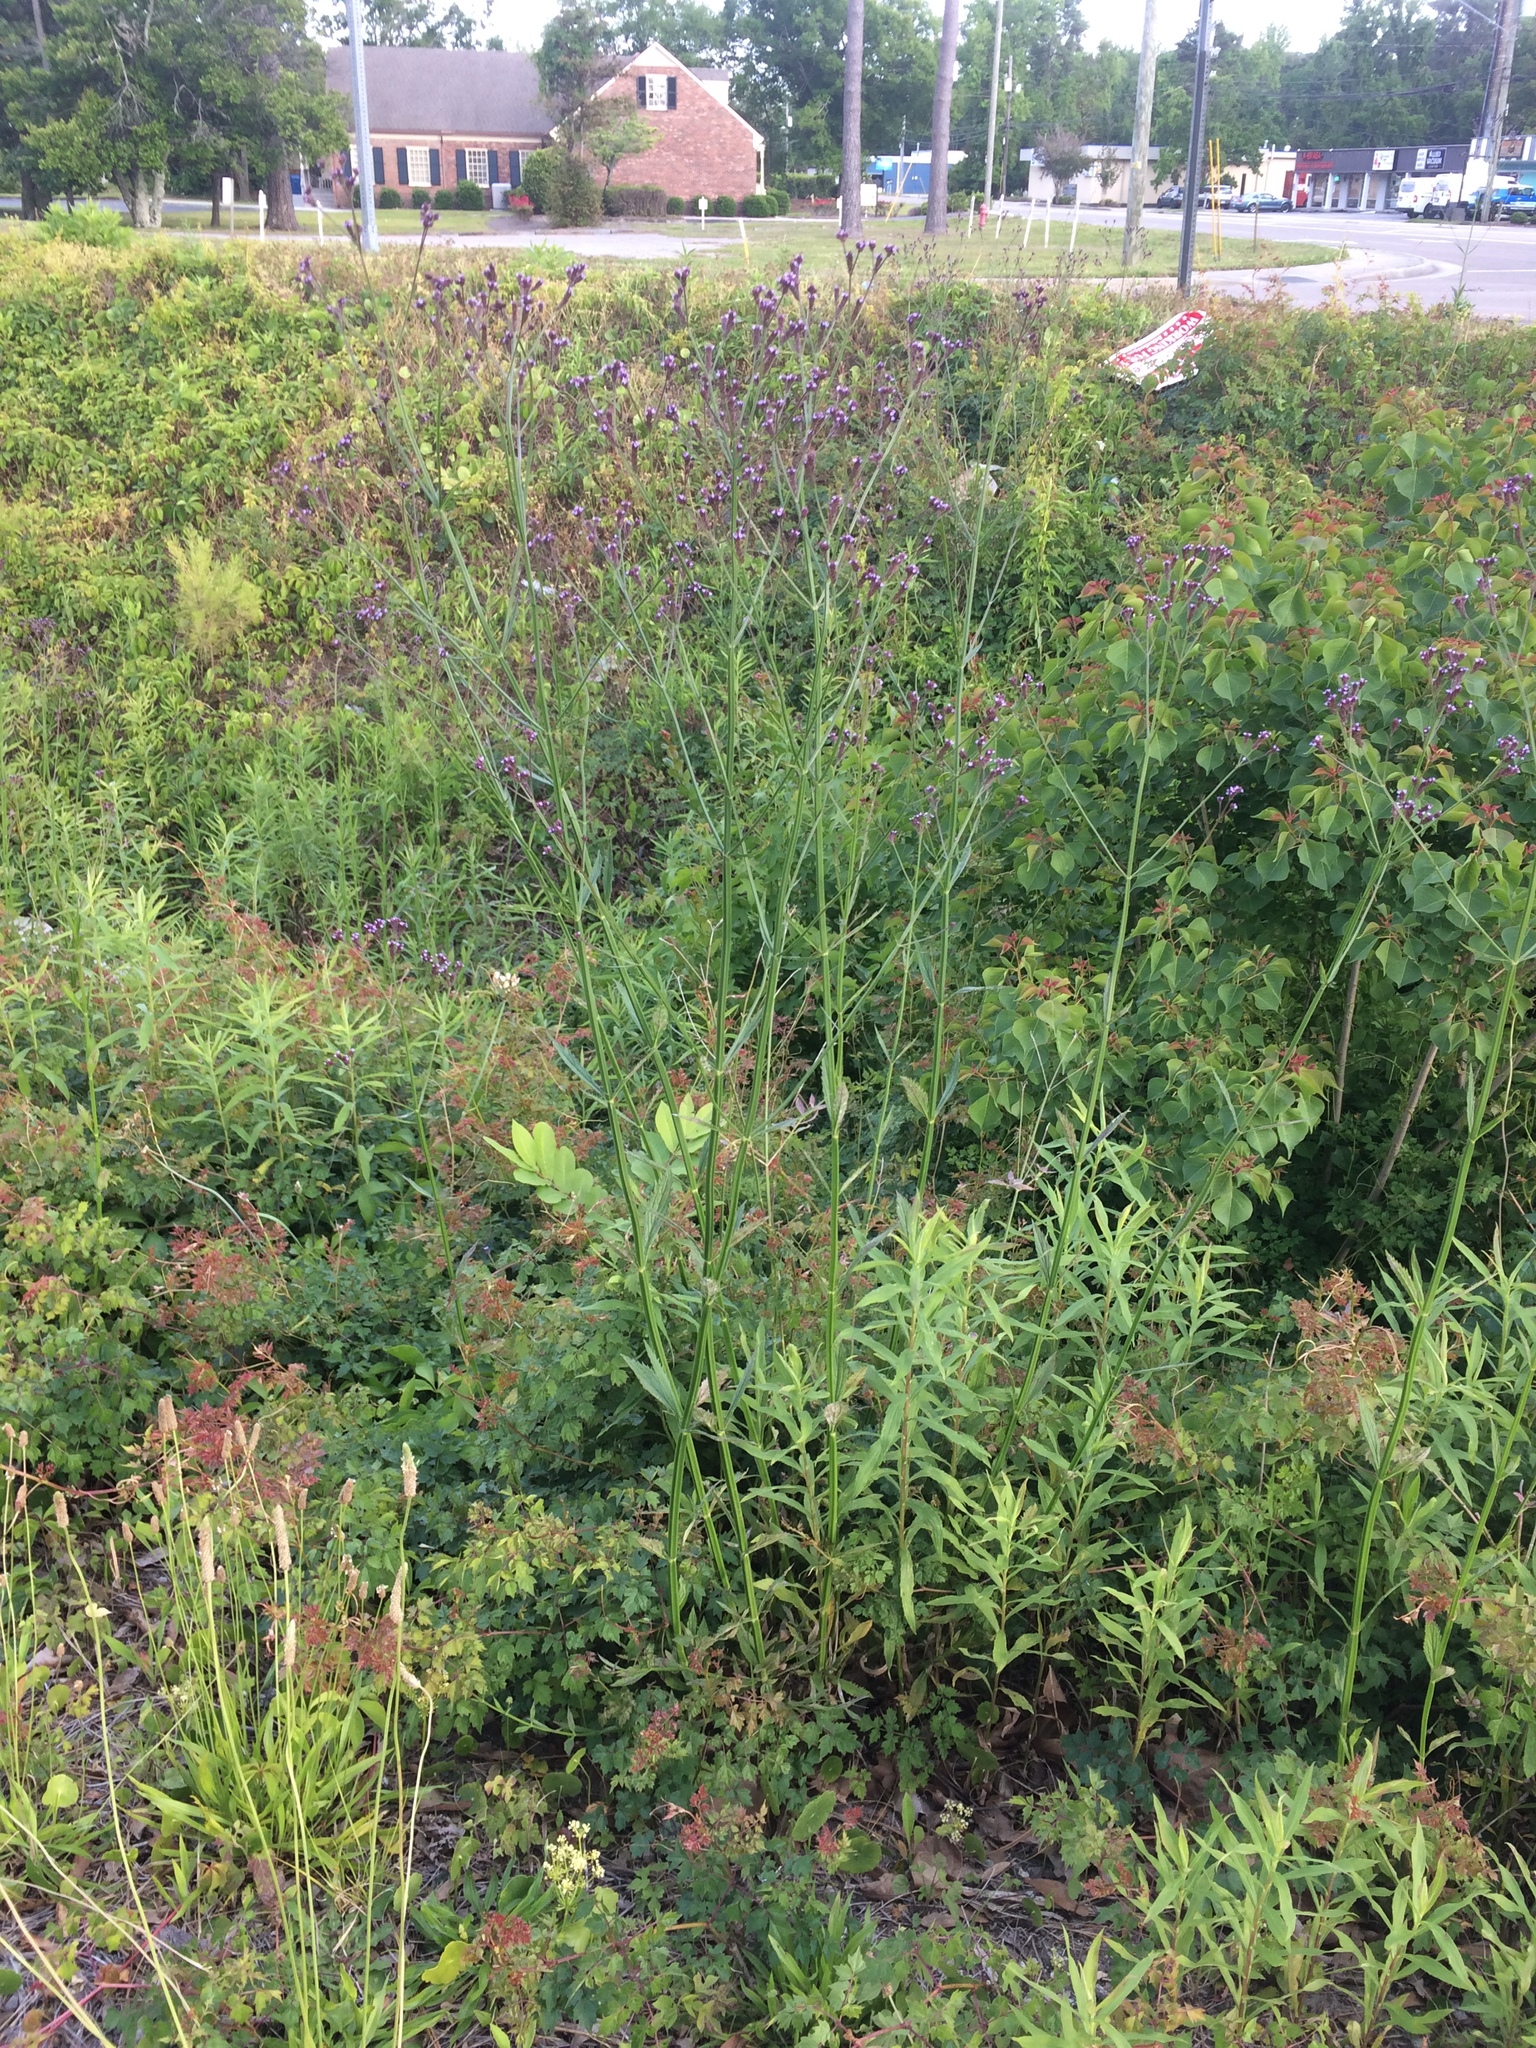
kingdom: Plantae
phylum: Tracheophyta
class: Magnoliopsida
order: Lamiales
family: Verbenaceae
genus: Verbena
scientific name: Verbena brasiliensis
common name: Brazilian vervain
